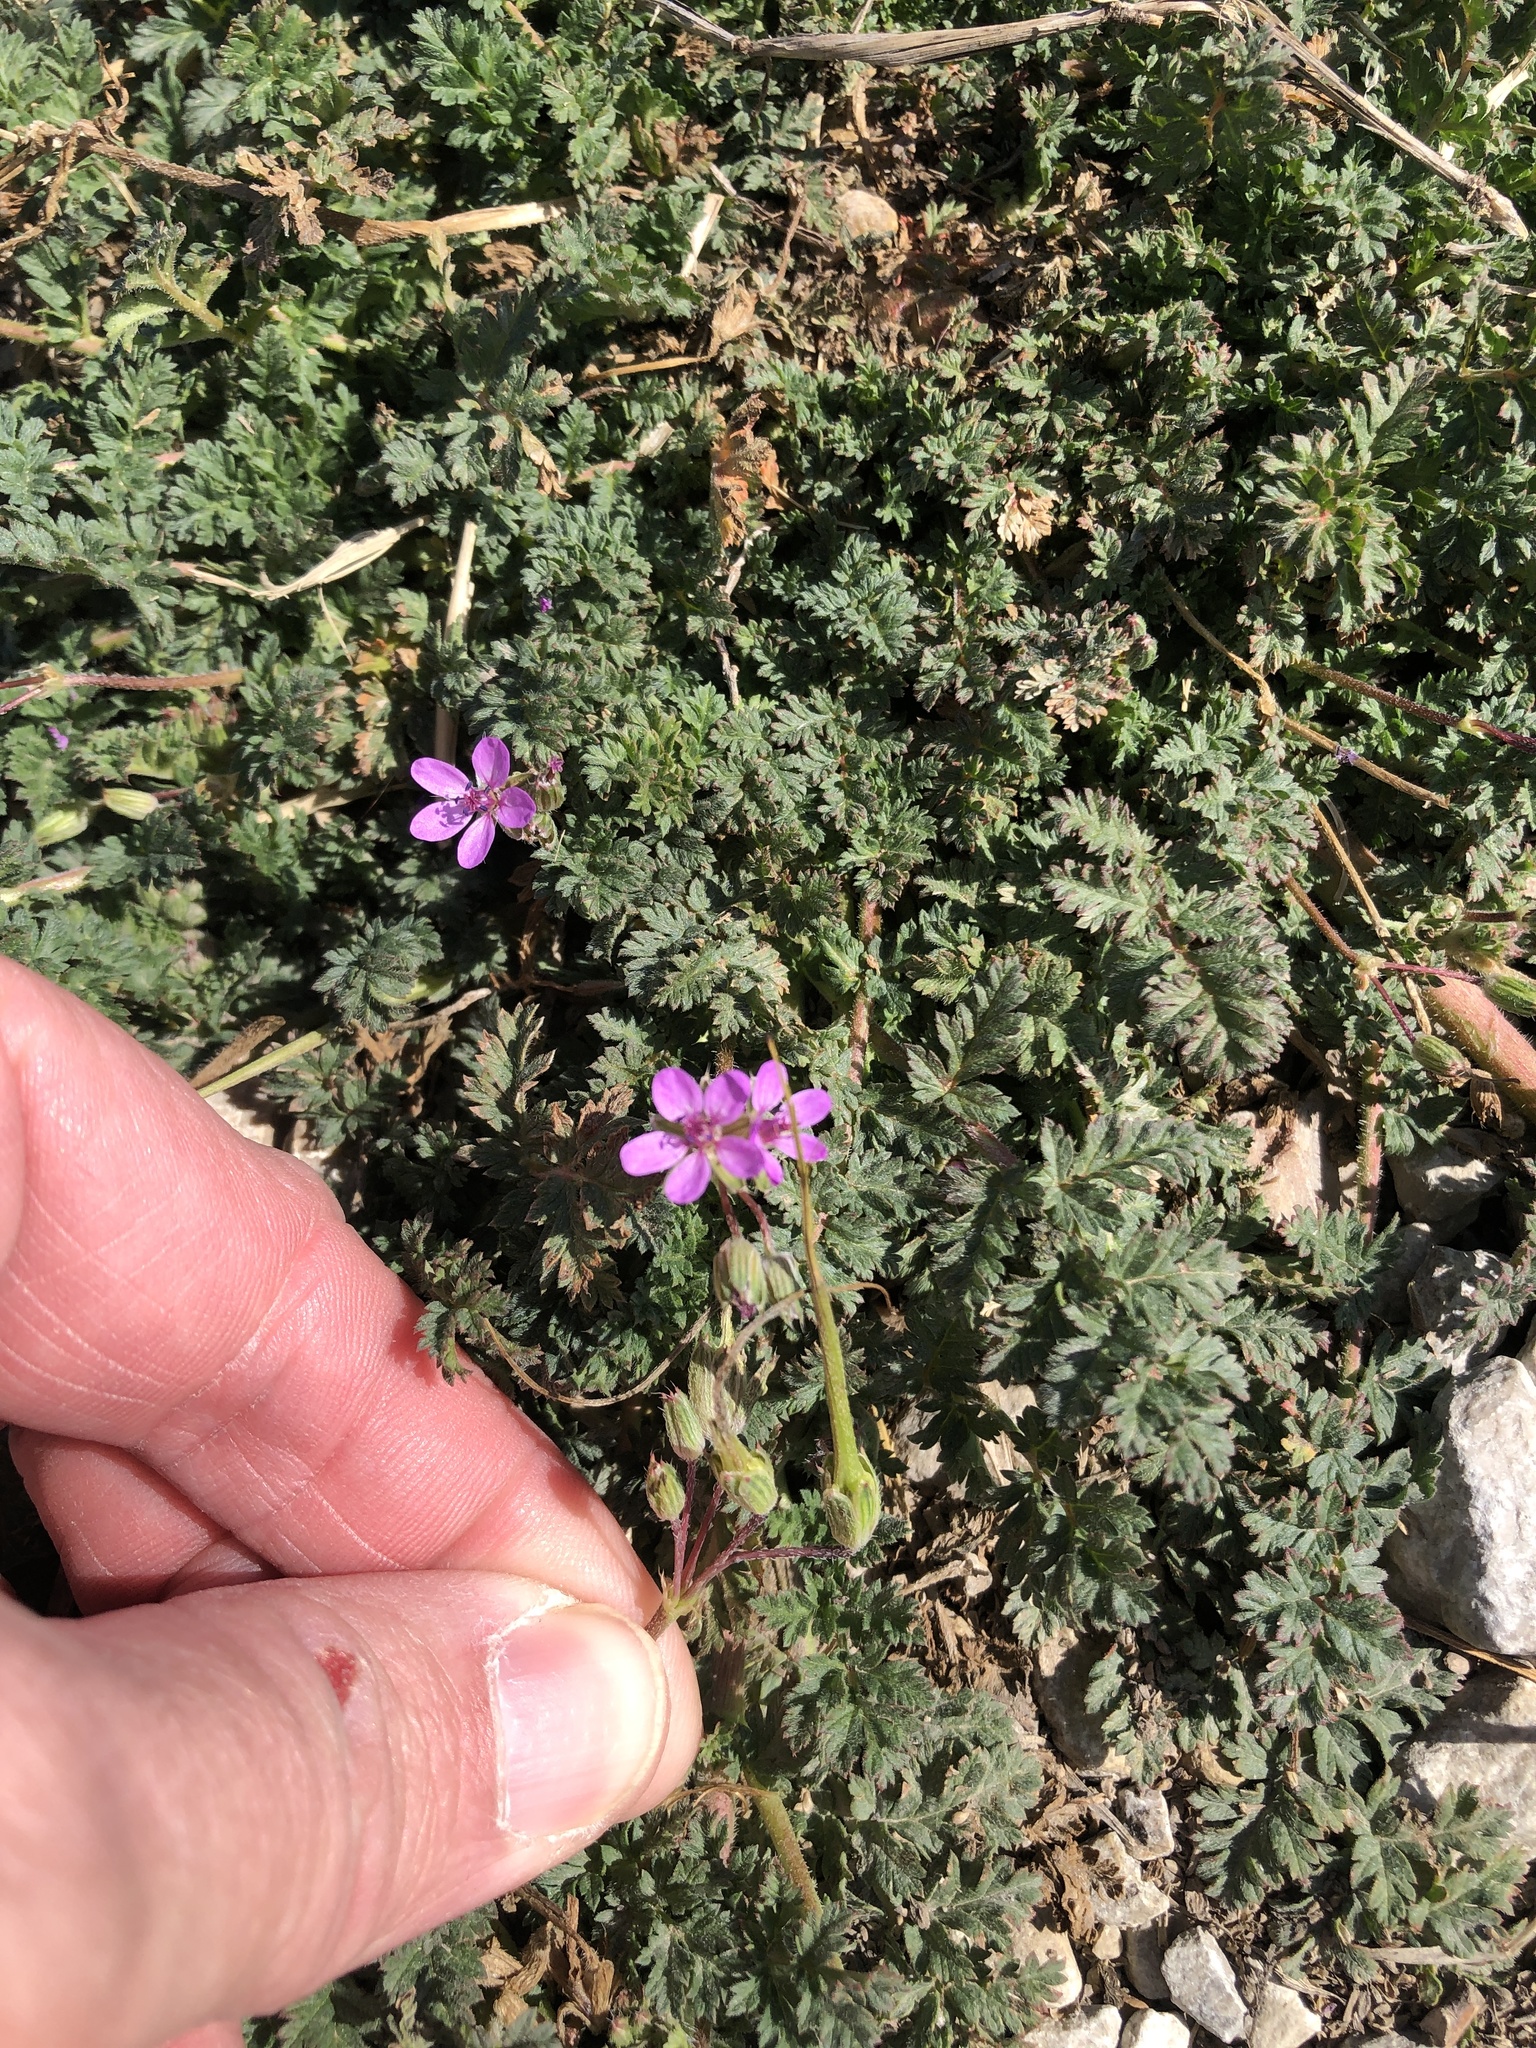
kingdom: Plantae
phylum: Tracheophyta
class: Magnoliopsida
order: Geraniales
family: Geraniaceae
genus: Erodium
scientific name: Erodium cicutarium
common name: Common stork's-bill
